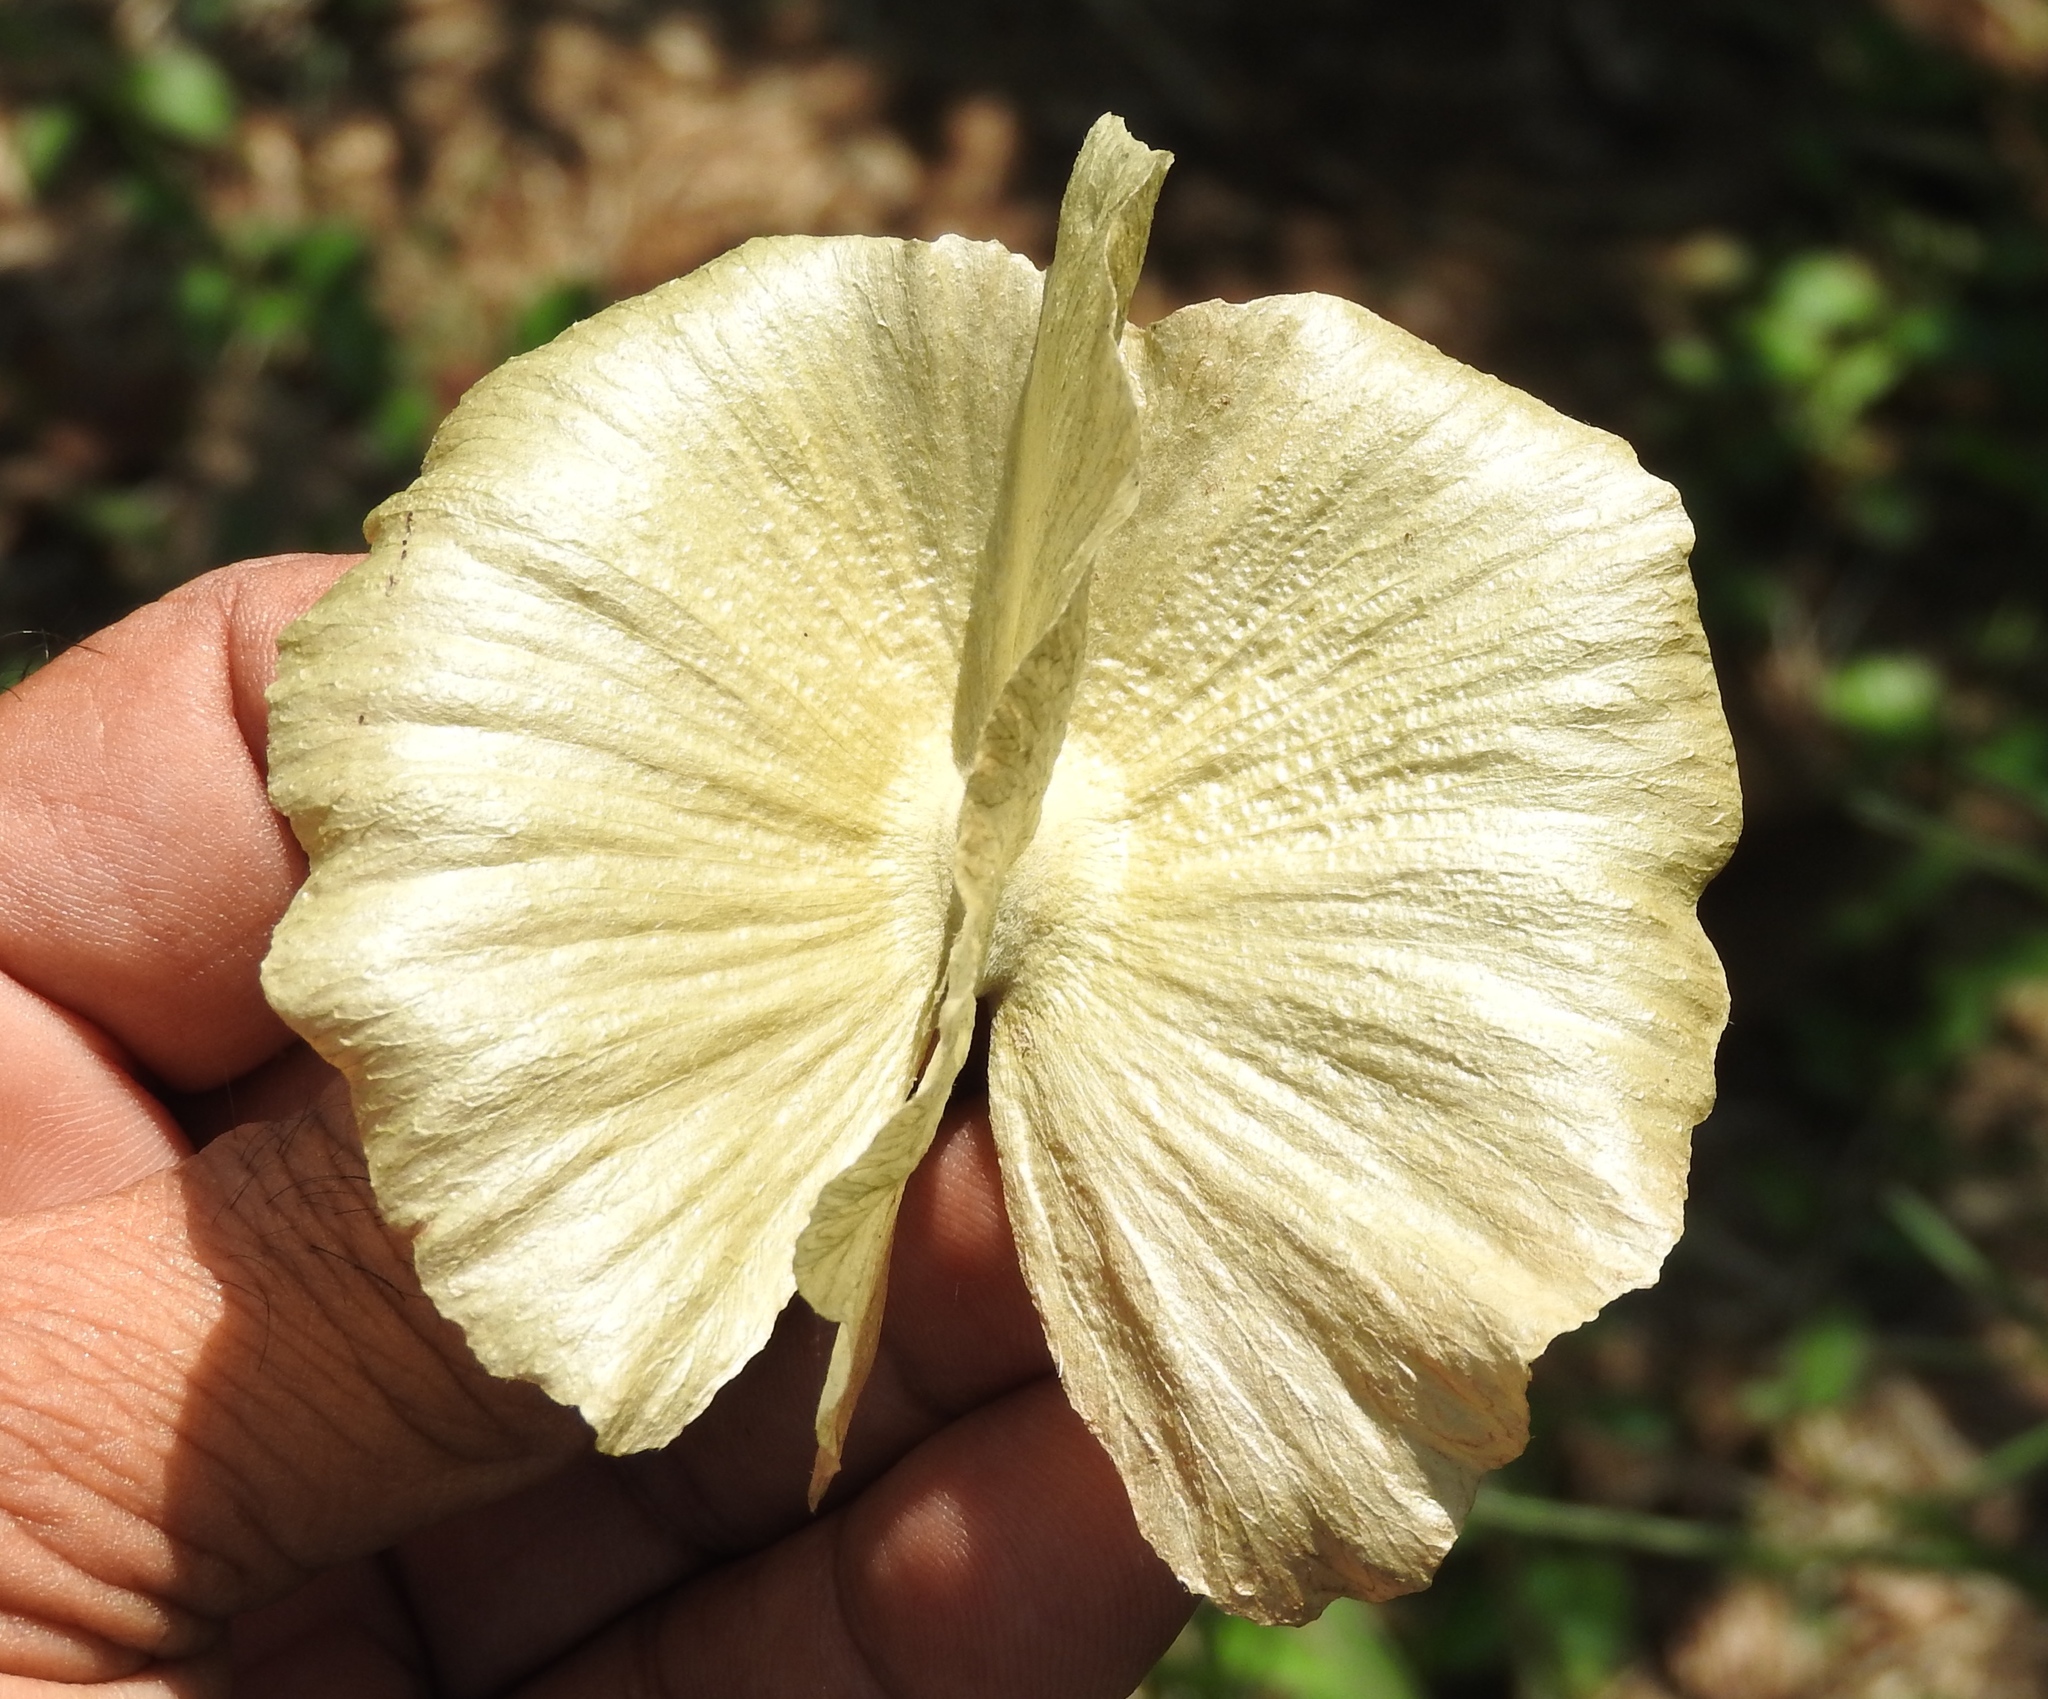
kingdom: Plantae
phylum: Tracheophyta
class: Magnoliopsida
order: Malpighiales
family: Malpighiaceae
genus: Callaeum
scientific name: Callaeum macropterum
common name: Mexican butterfly-vine
